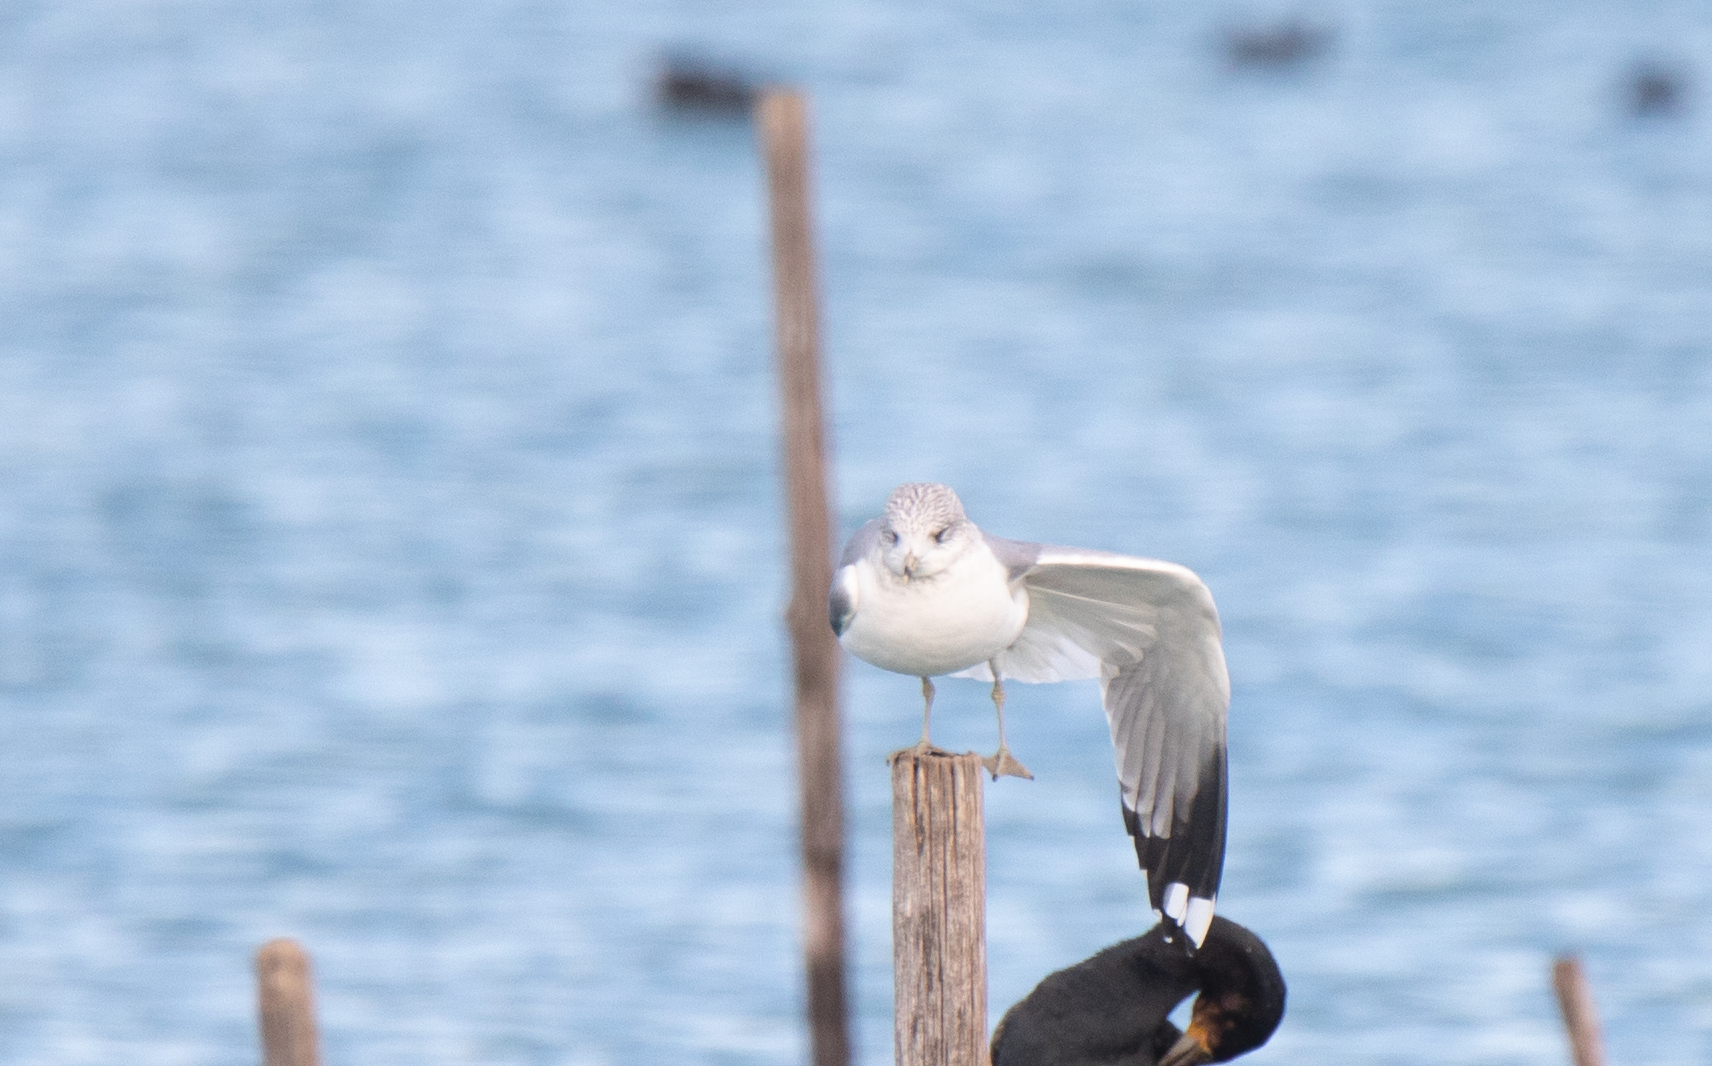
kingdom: Animalia
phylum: Chordata
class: Aves
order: Charadriiformes
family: Laridae
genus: Larus
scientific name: Larus canus
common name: Mew gull
